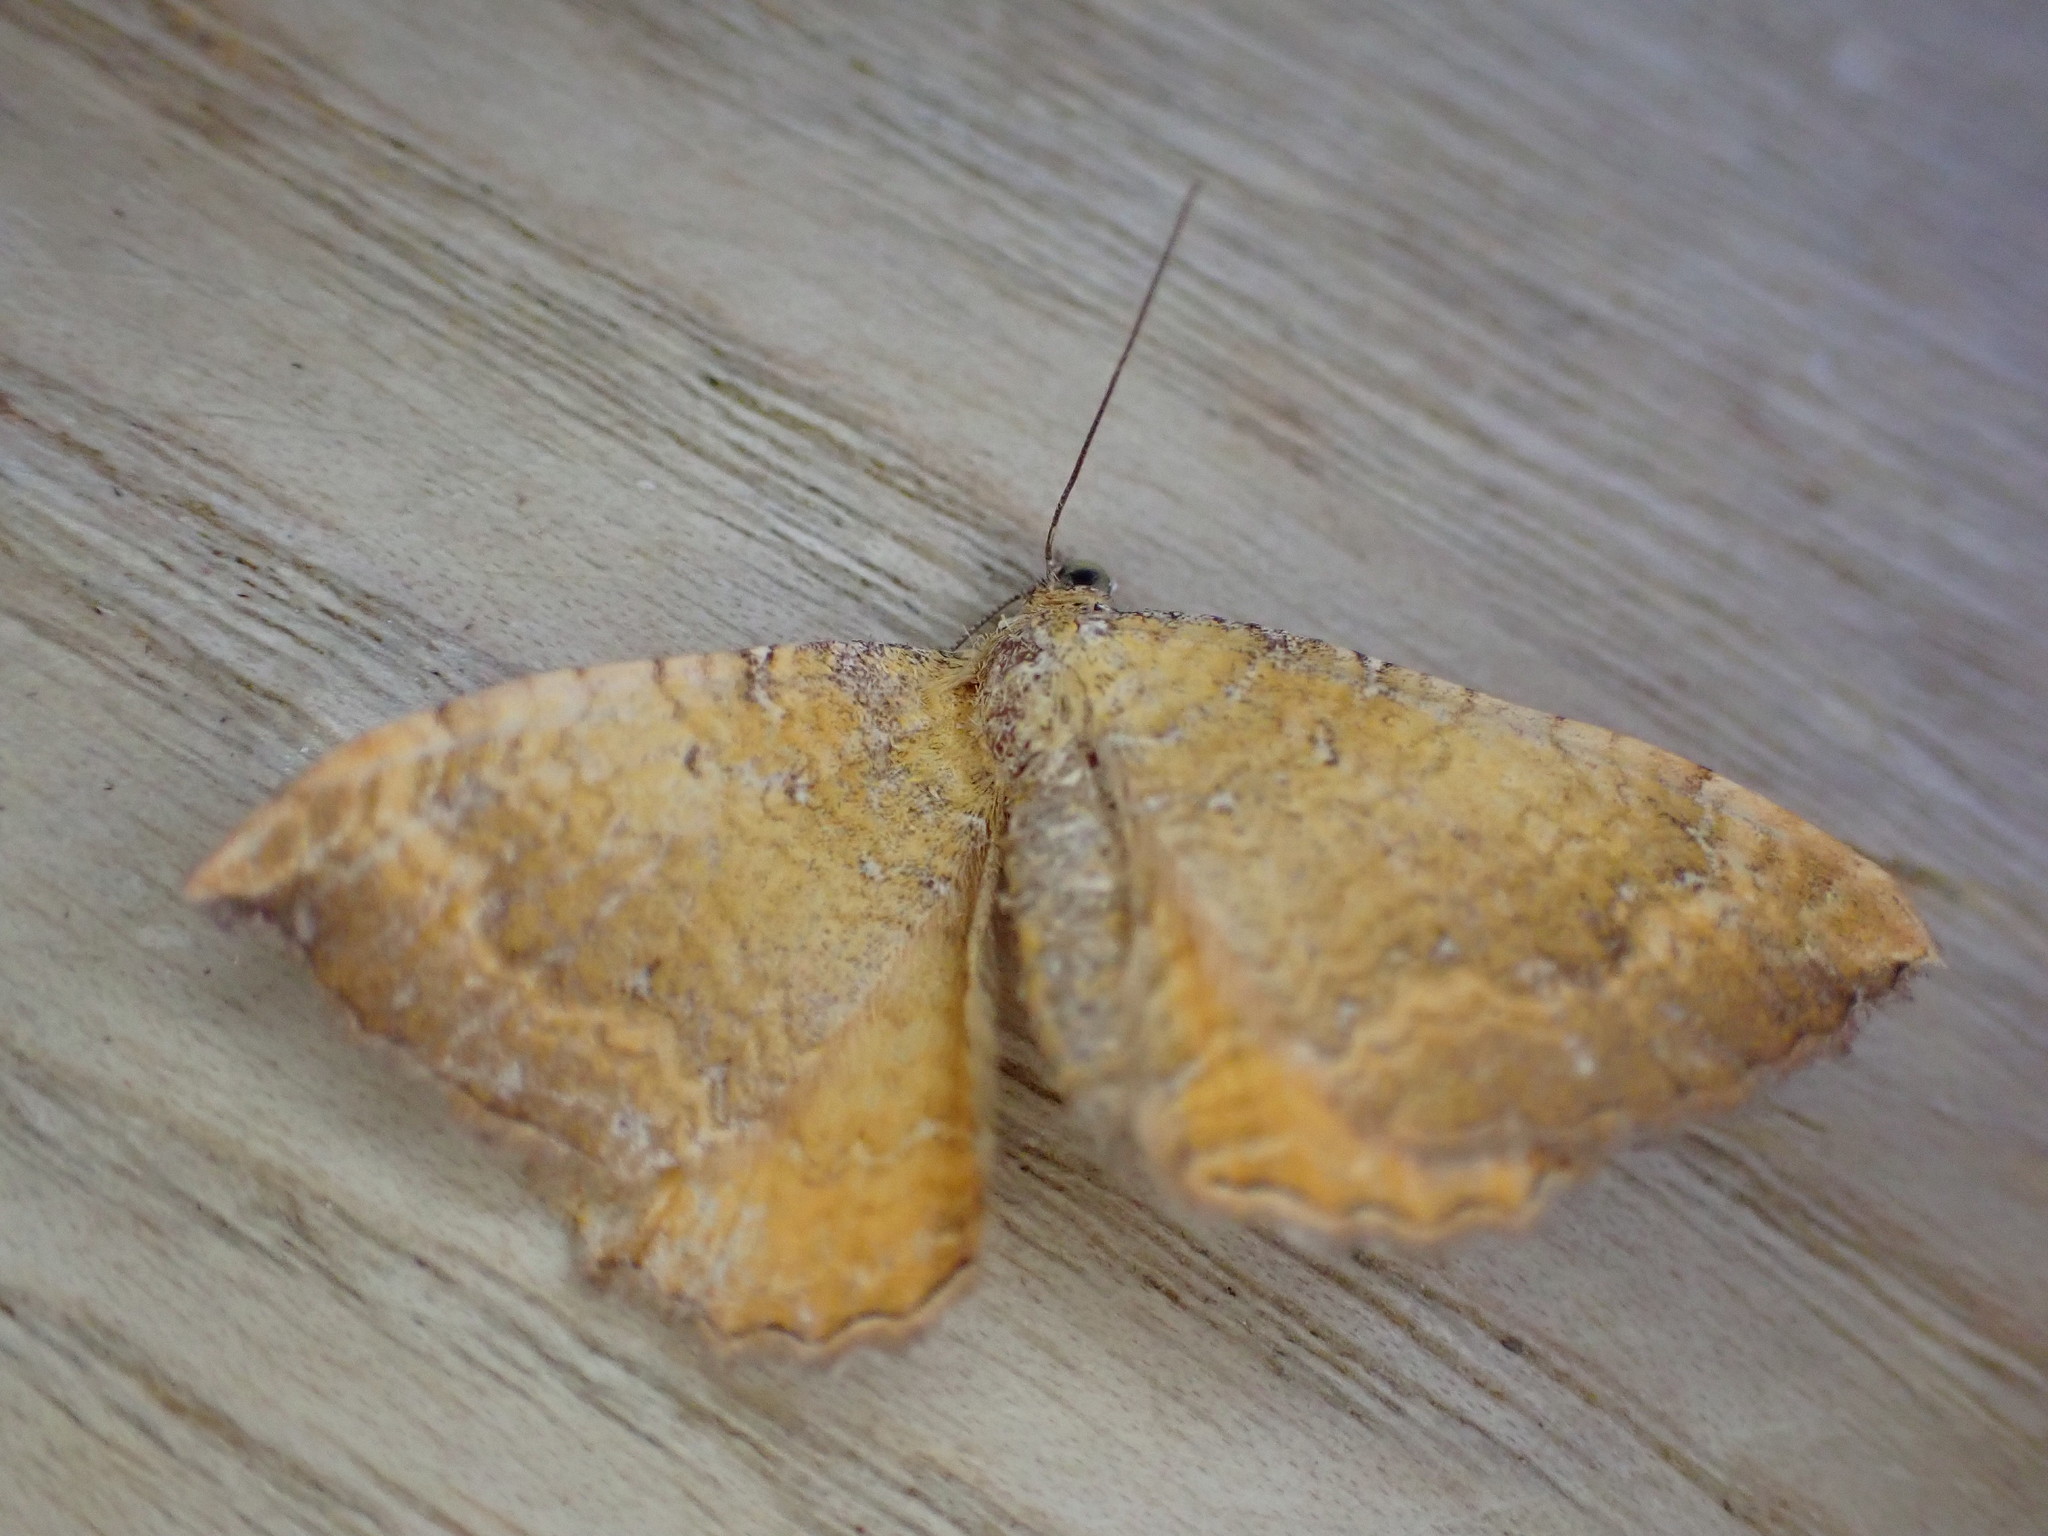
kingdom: Animalia
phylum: Arthropoda
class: Insecta
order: Lepidoptera
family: Geometridae
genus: Camptogramma
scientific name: Camptogramma bilineata
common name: Yellow shell
